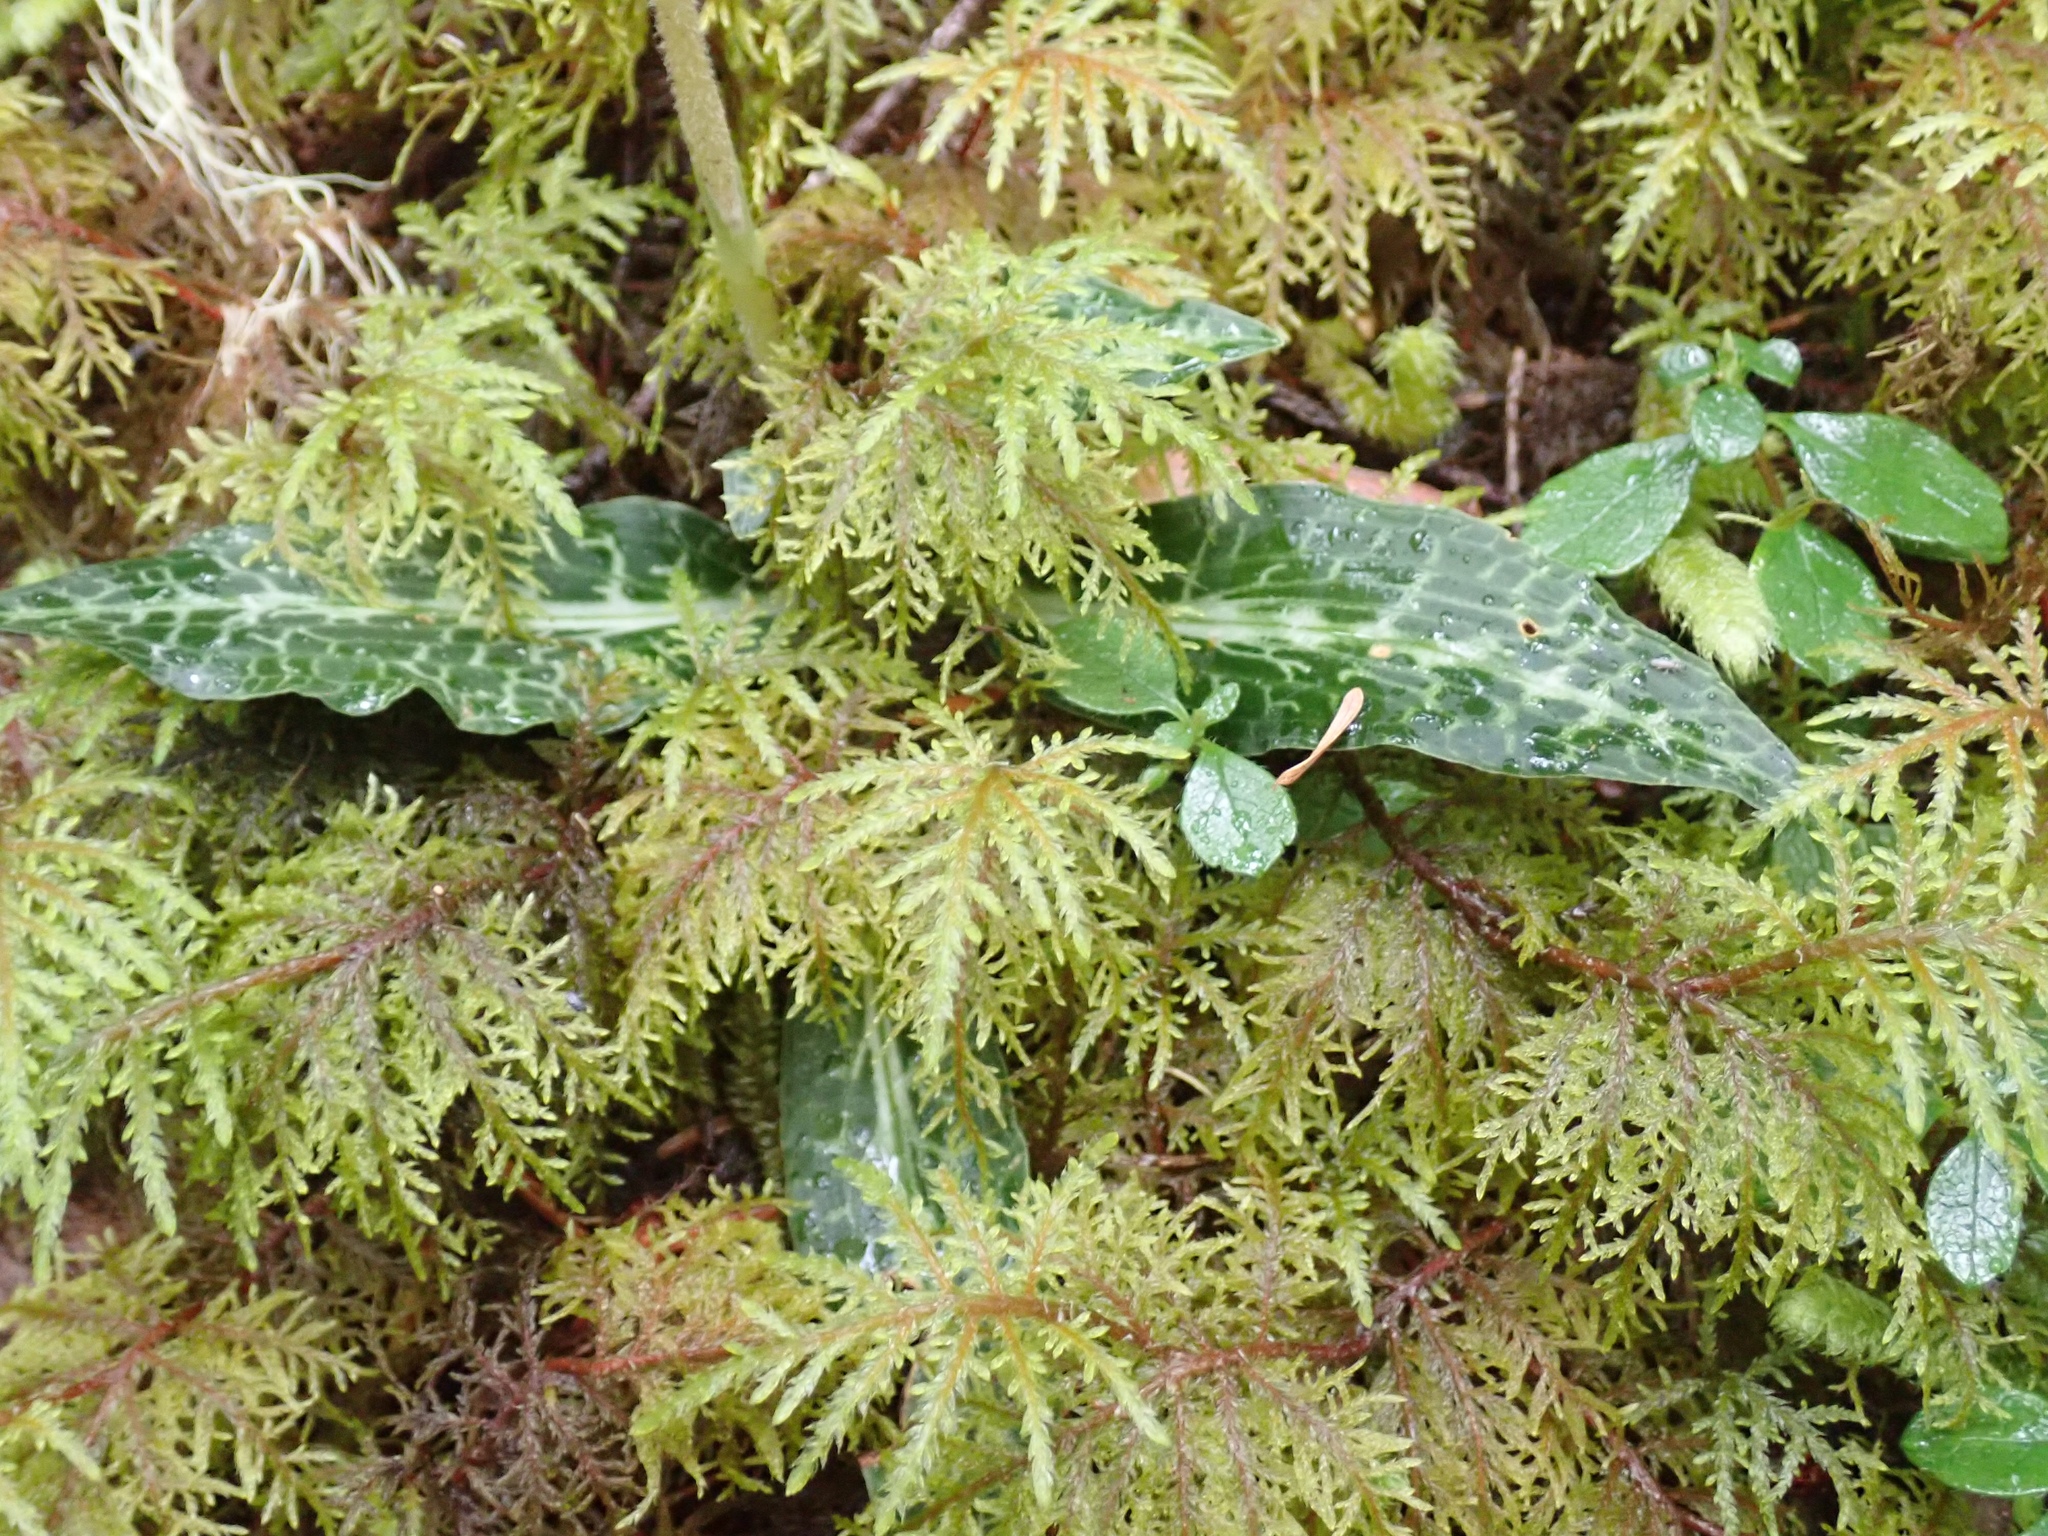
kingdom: Plantae
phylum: Tracheophyta
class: Liliopsida
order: Asparagales
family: Orchidaceae
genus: Goodyera
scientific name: Goodyera oblongifolia
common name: Giant rattlesnake-plantain
